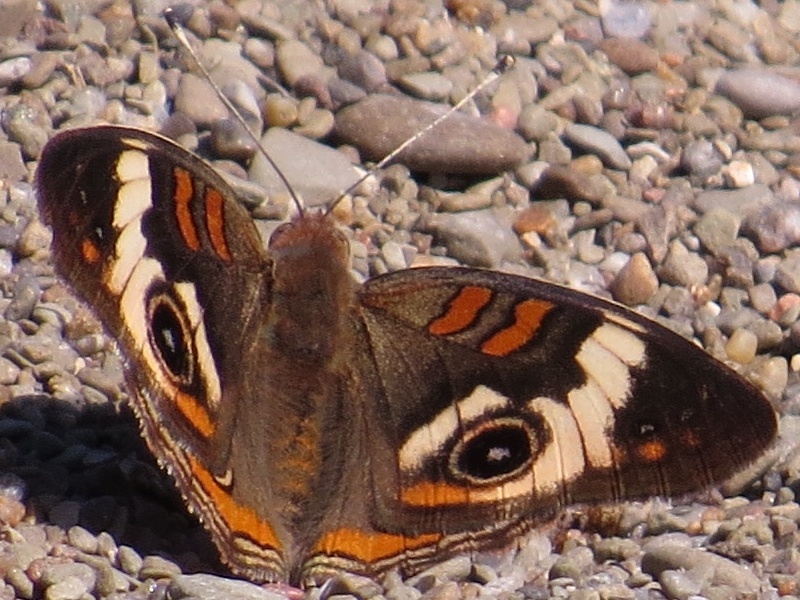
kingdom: Animalia
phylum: Arthropoda
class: Insecta
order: Lepidoptera
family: Nymphalidae
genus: Junonia
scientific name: Junonia coenia
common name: Common buckeye
